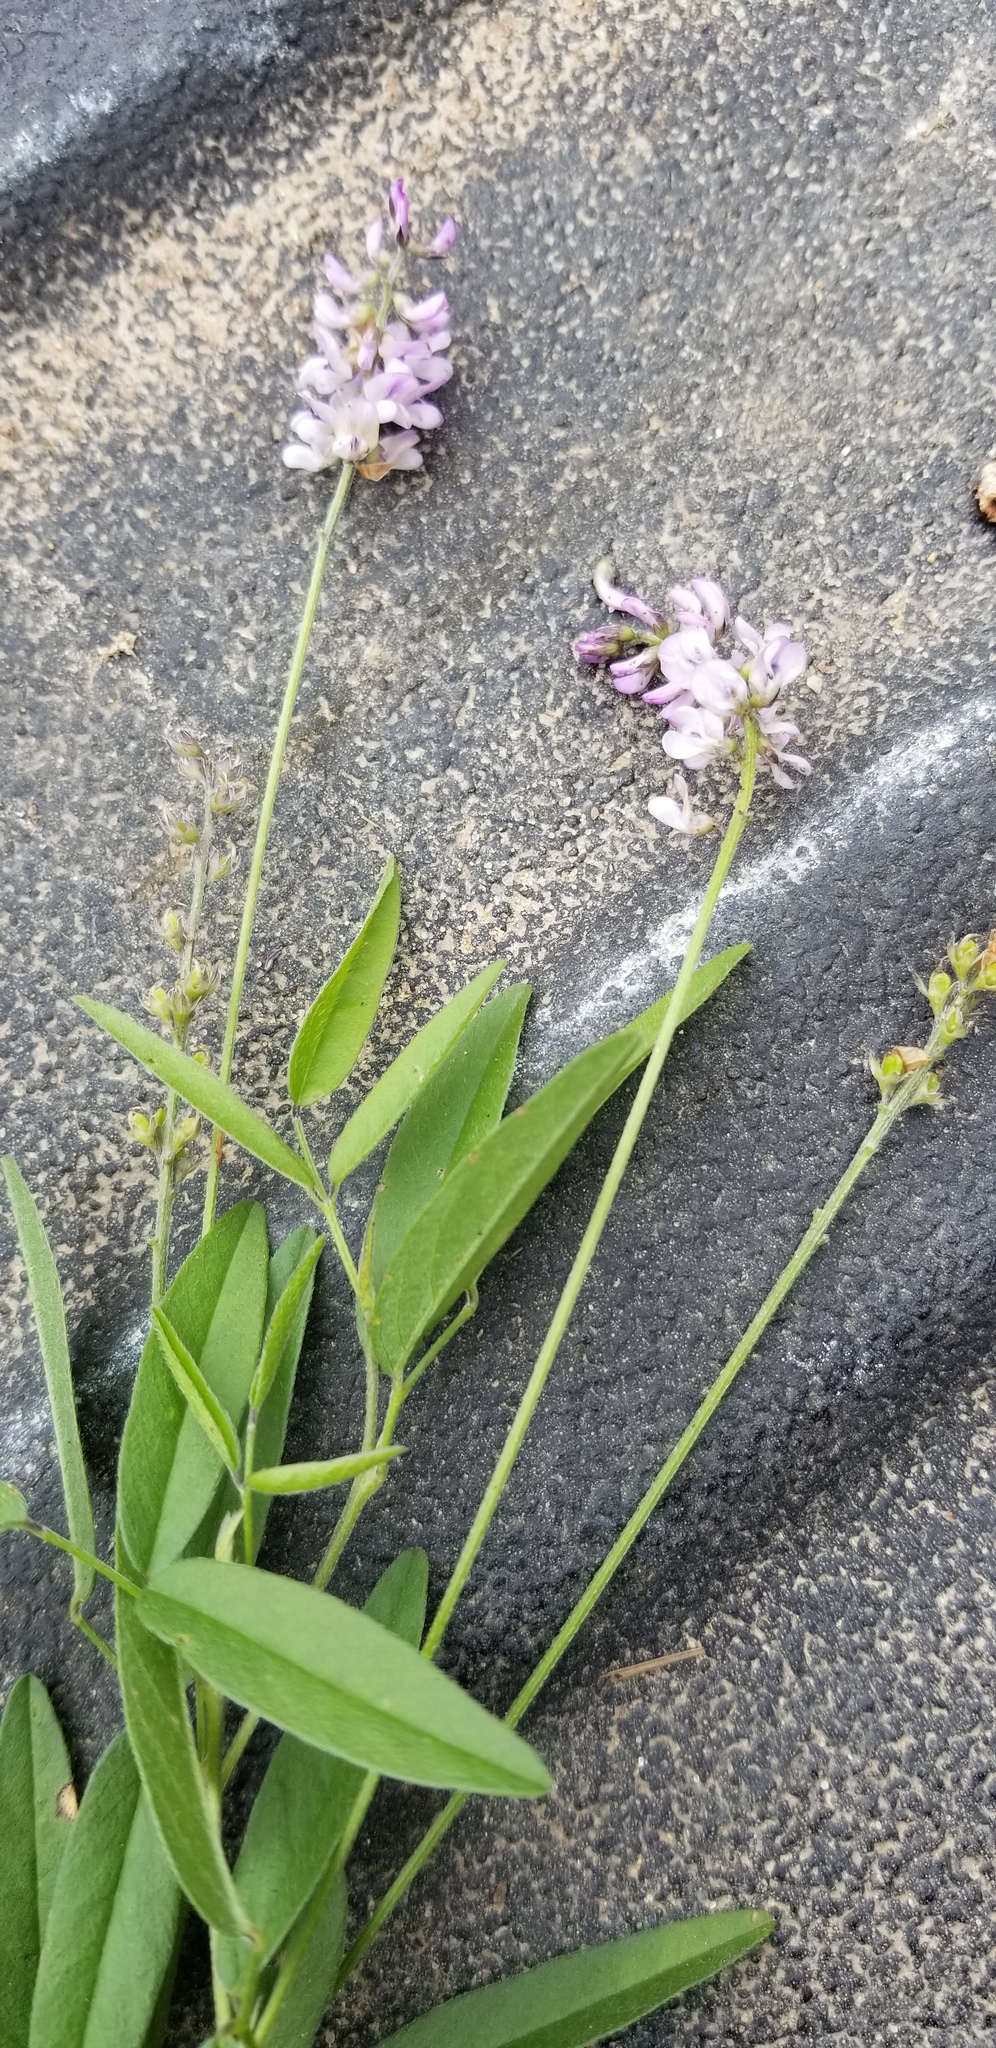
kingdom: Plantae
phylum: Tracheophyta
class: Magnoliopsida
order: Fabales
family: Fabaceae
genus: Orbexilum
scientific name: Orbexilum pedunculatum
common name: Sampson's snakeroot
